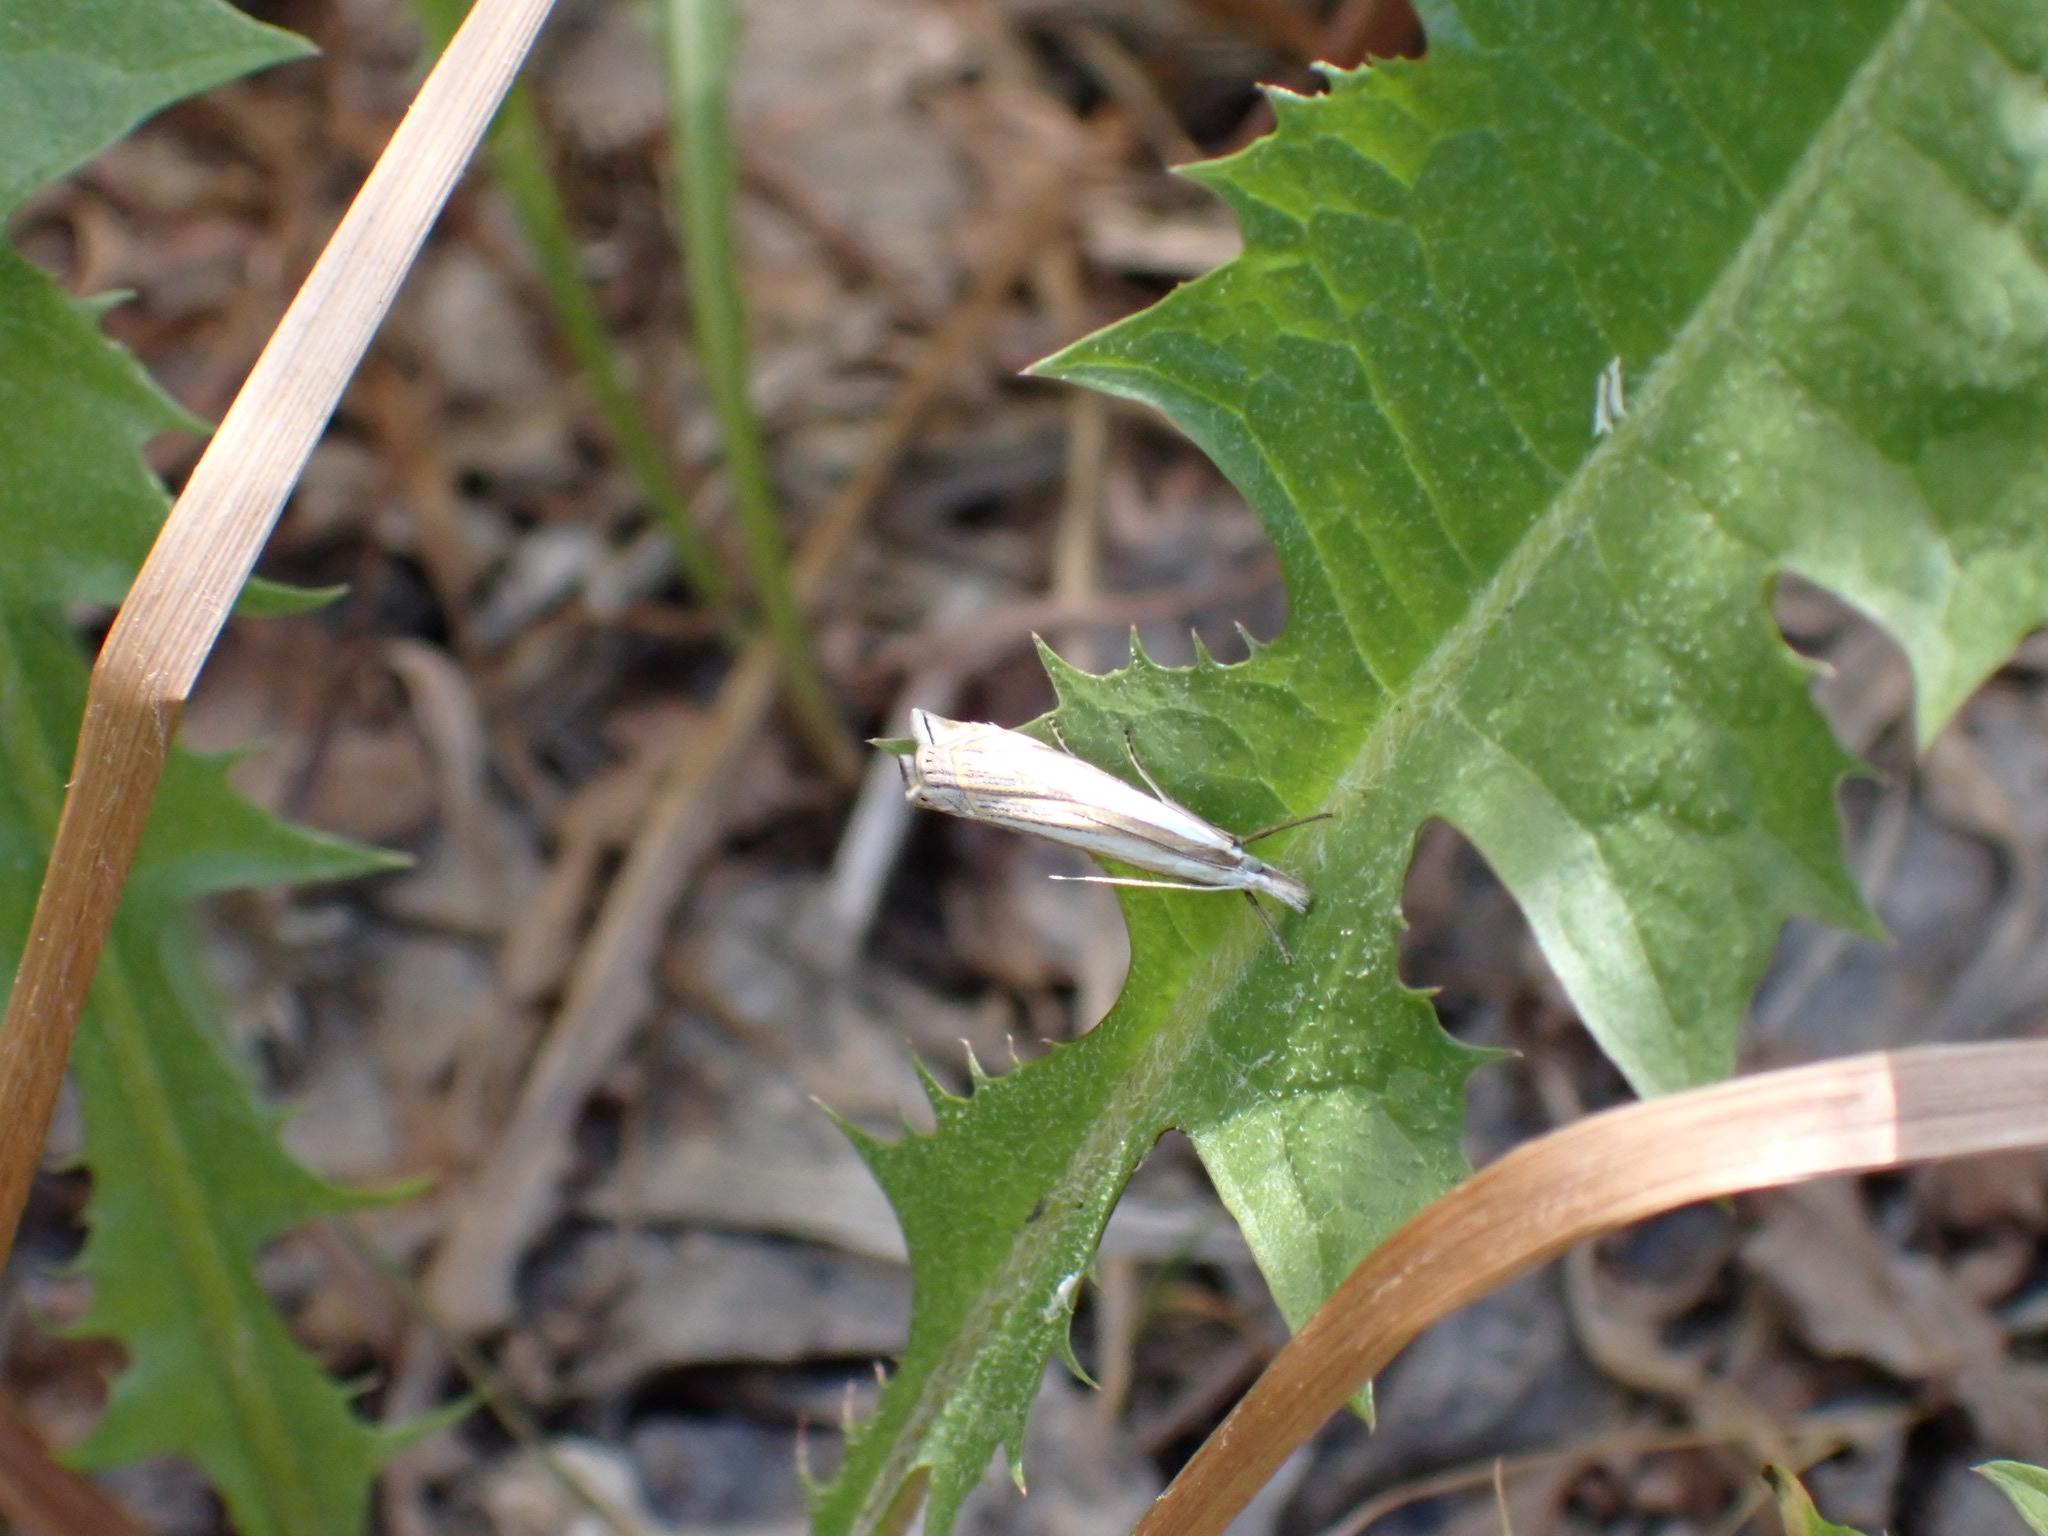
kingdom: Animalia
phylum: Arthropoda
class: Insecta
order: Lepidoptera
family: Crambidae
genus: Crambus
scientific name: Crambus pascuella
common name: Inlaid grass-veneer
